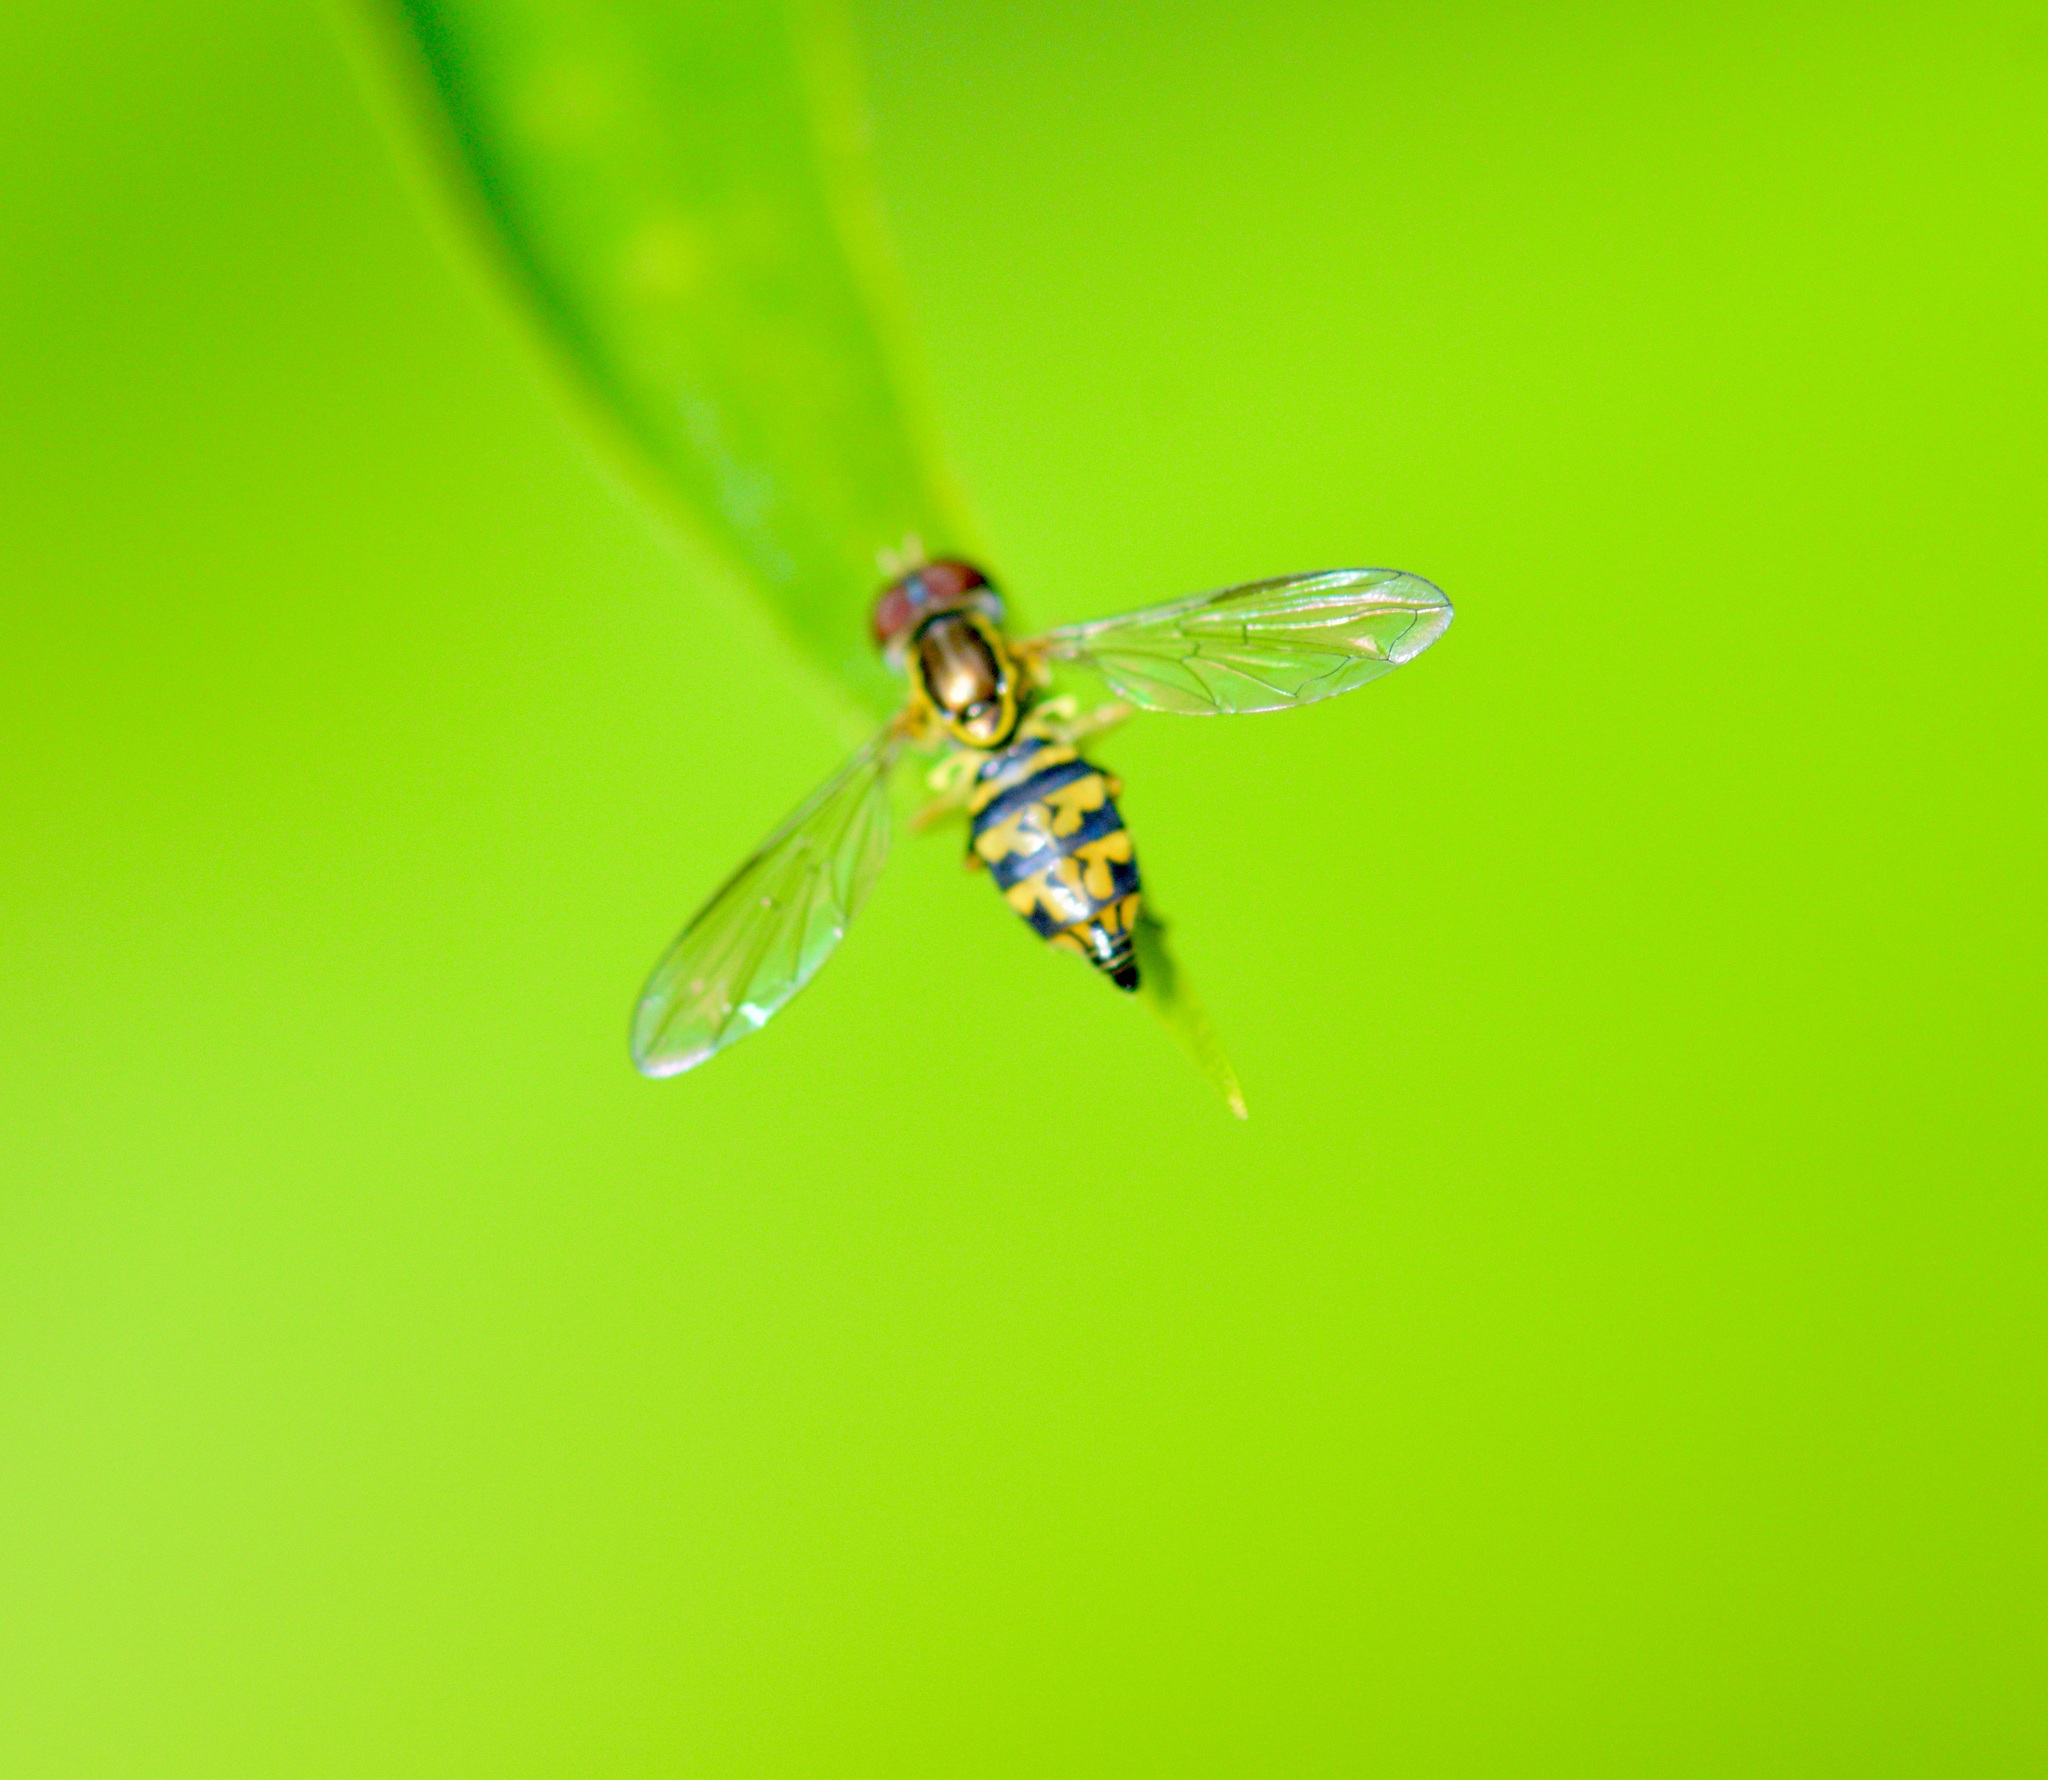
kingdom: Animalia
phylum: Arthropoda
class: Insecta
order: Diptera
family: Syrphidae
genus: Toxomerus
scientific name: Toxomerus geminatus
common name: Eastern calligrapher
